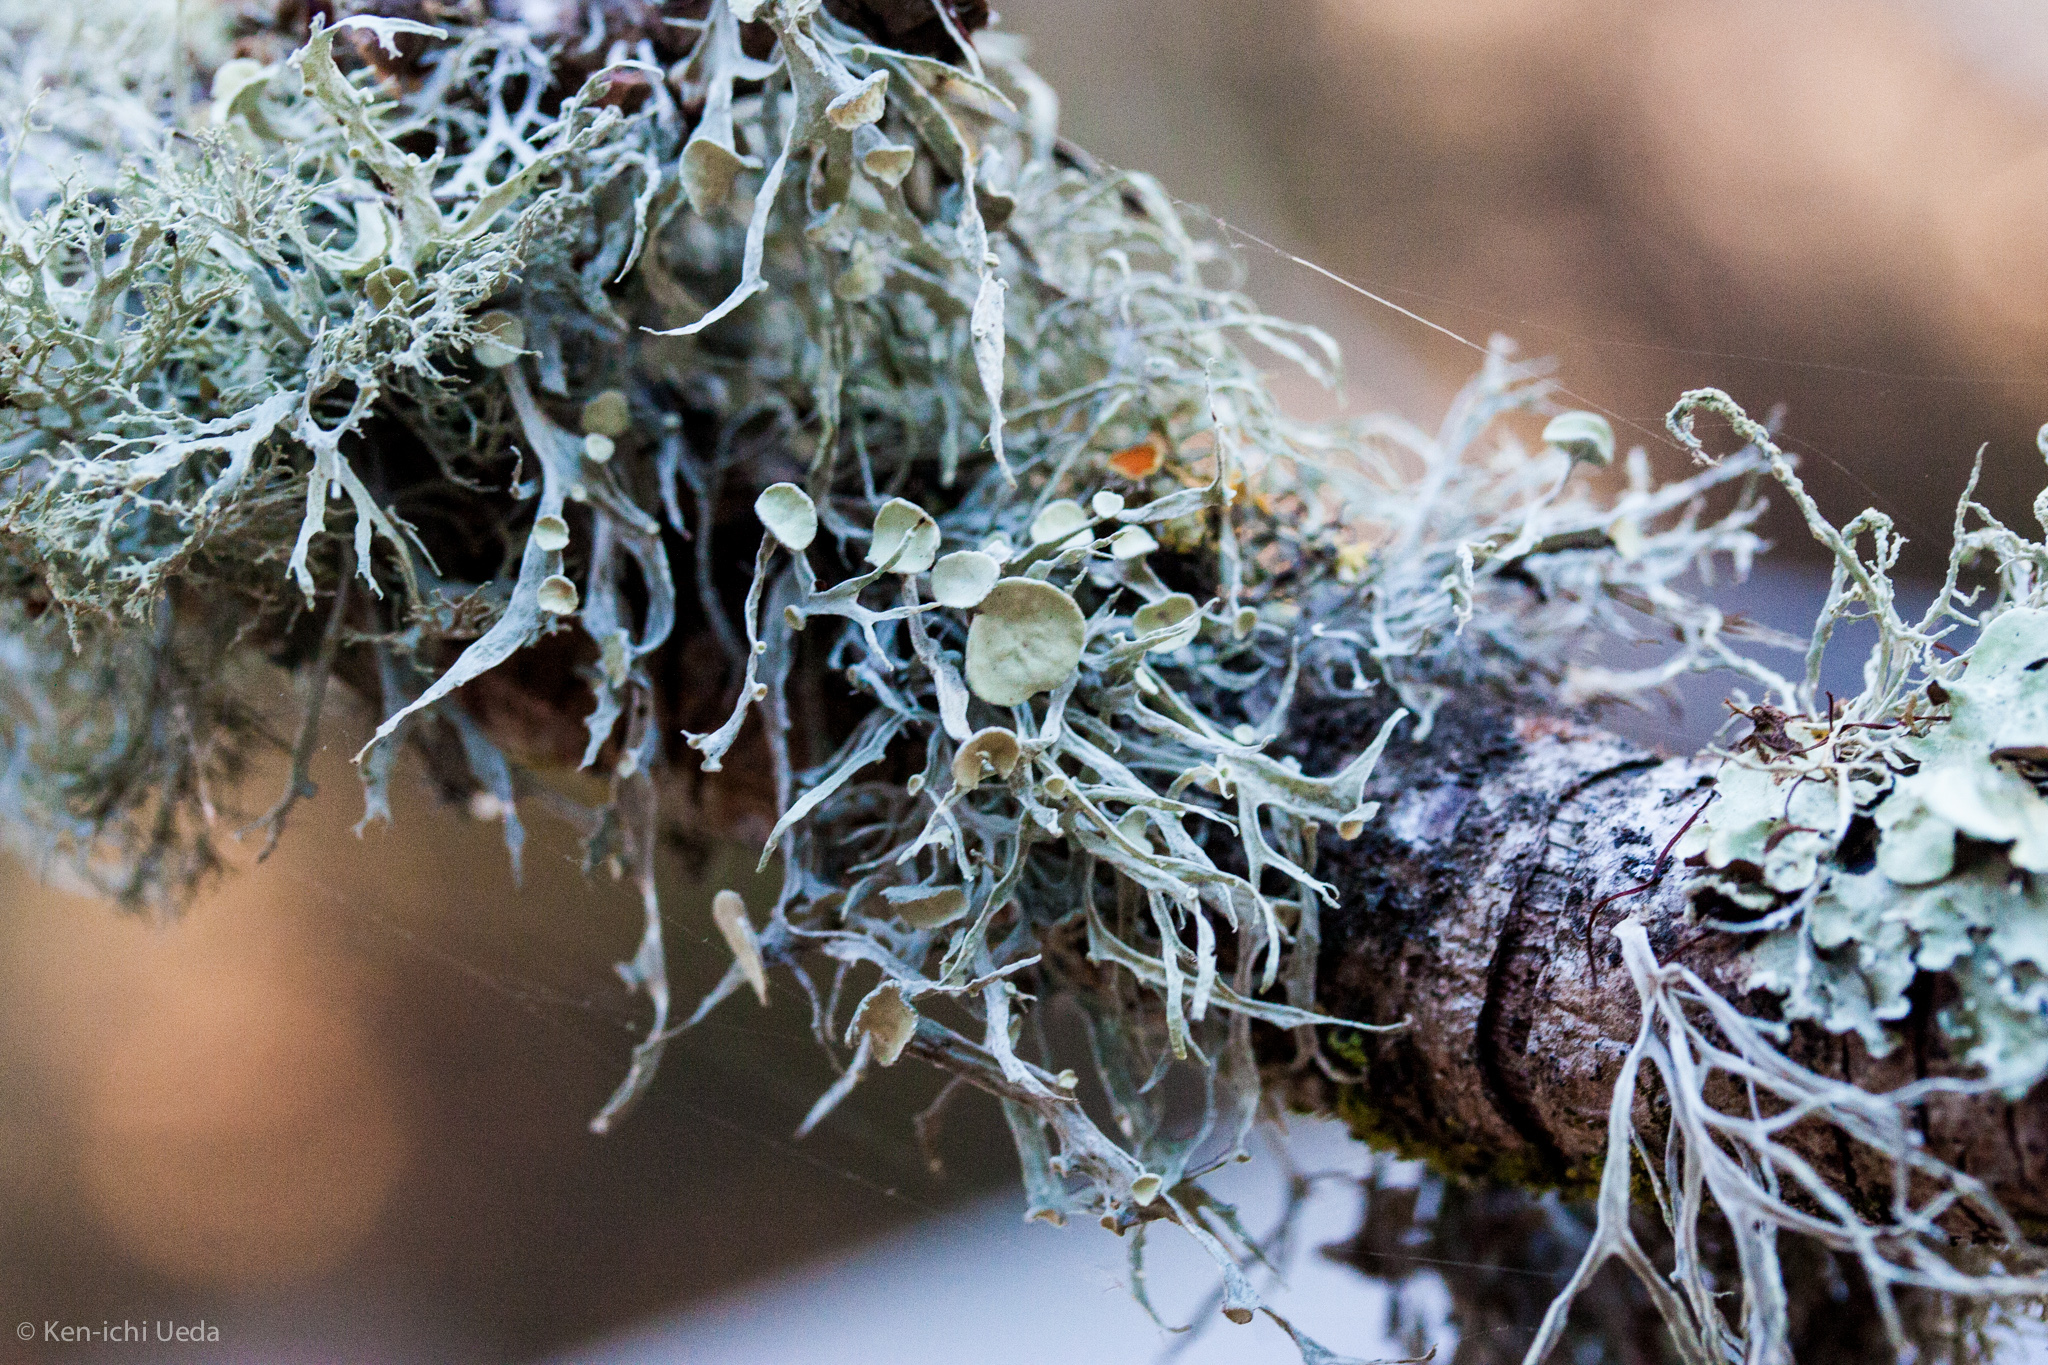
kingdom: Fungi
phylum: Ascomycota
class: Lecanoromycetes
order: Lecanorales
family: Ramalinaceae
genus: Ramalina
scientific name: Ramalina leptocarpha
